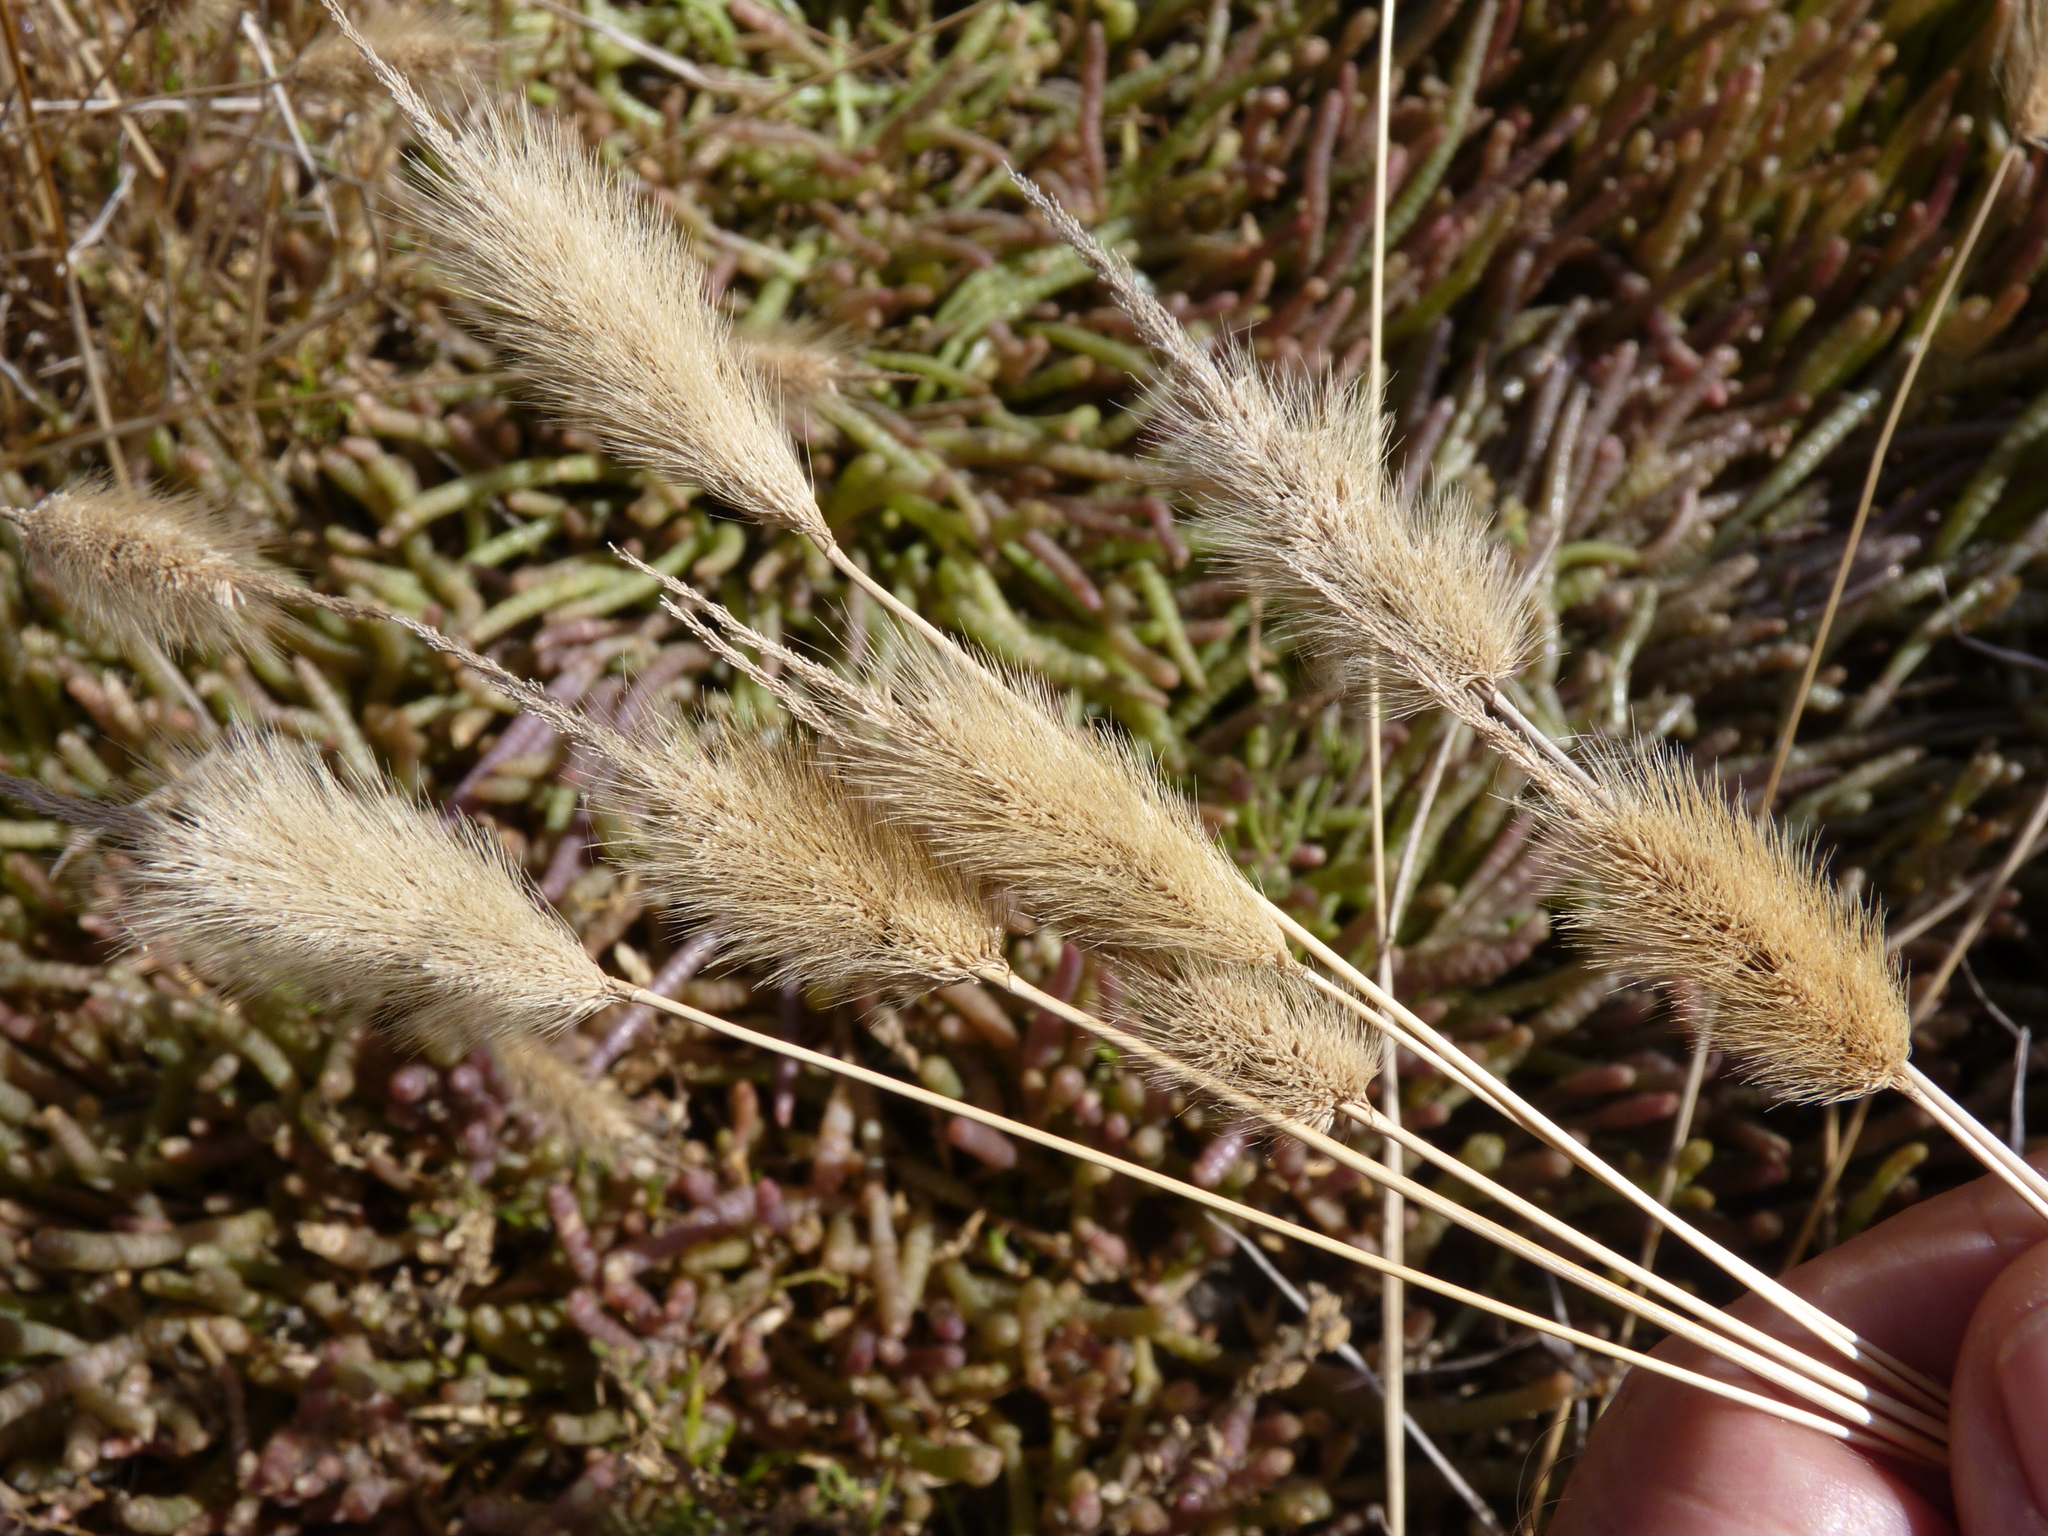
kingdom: Plantae
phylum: Tracheophyta
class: Liliopsida
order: Poales
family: Poaceae
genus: Polypogon
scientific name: Polypogon monspeliensis
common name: Annual rabbitsfoot grass
